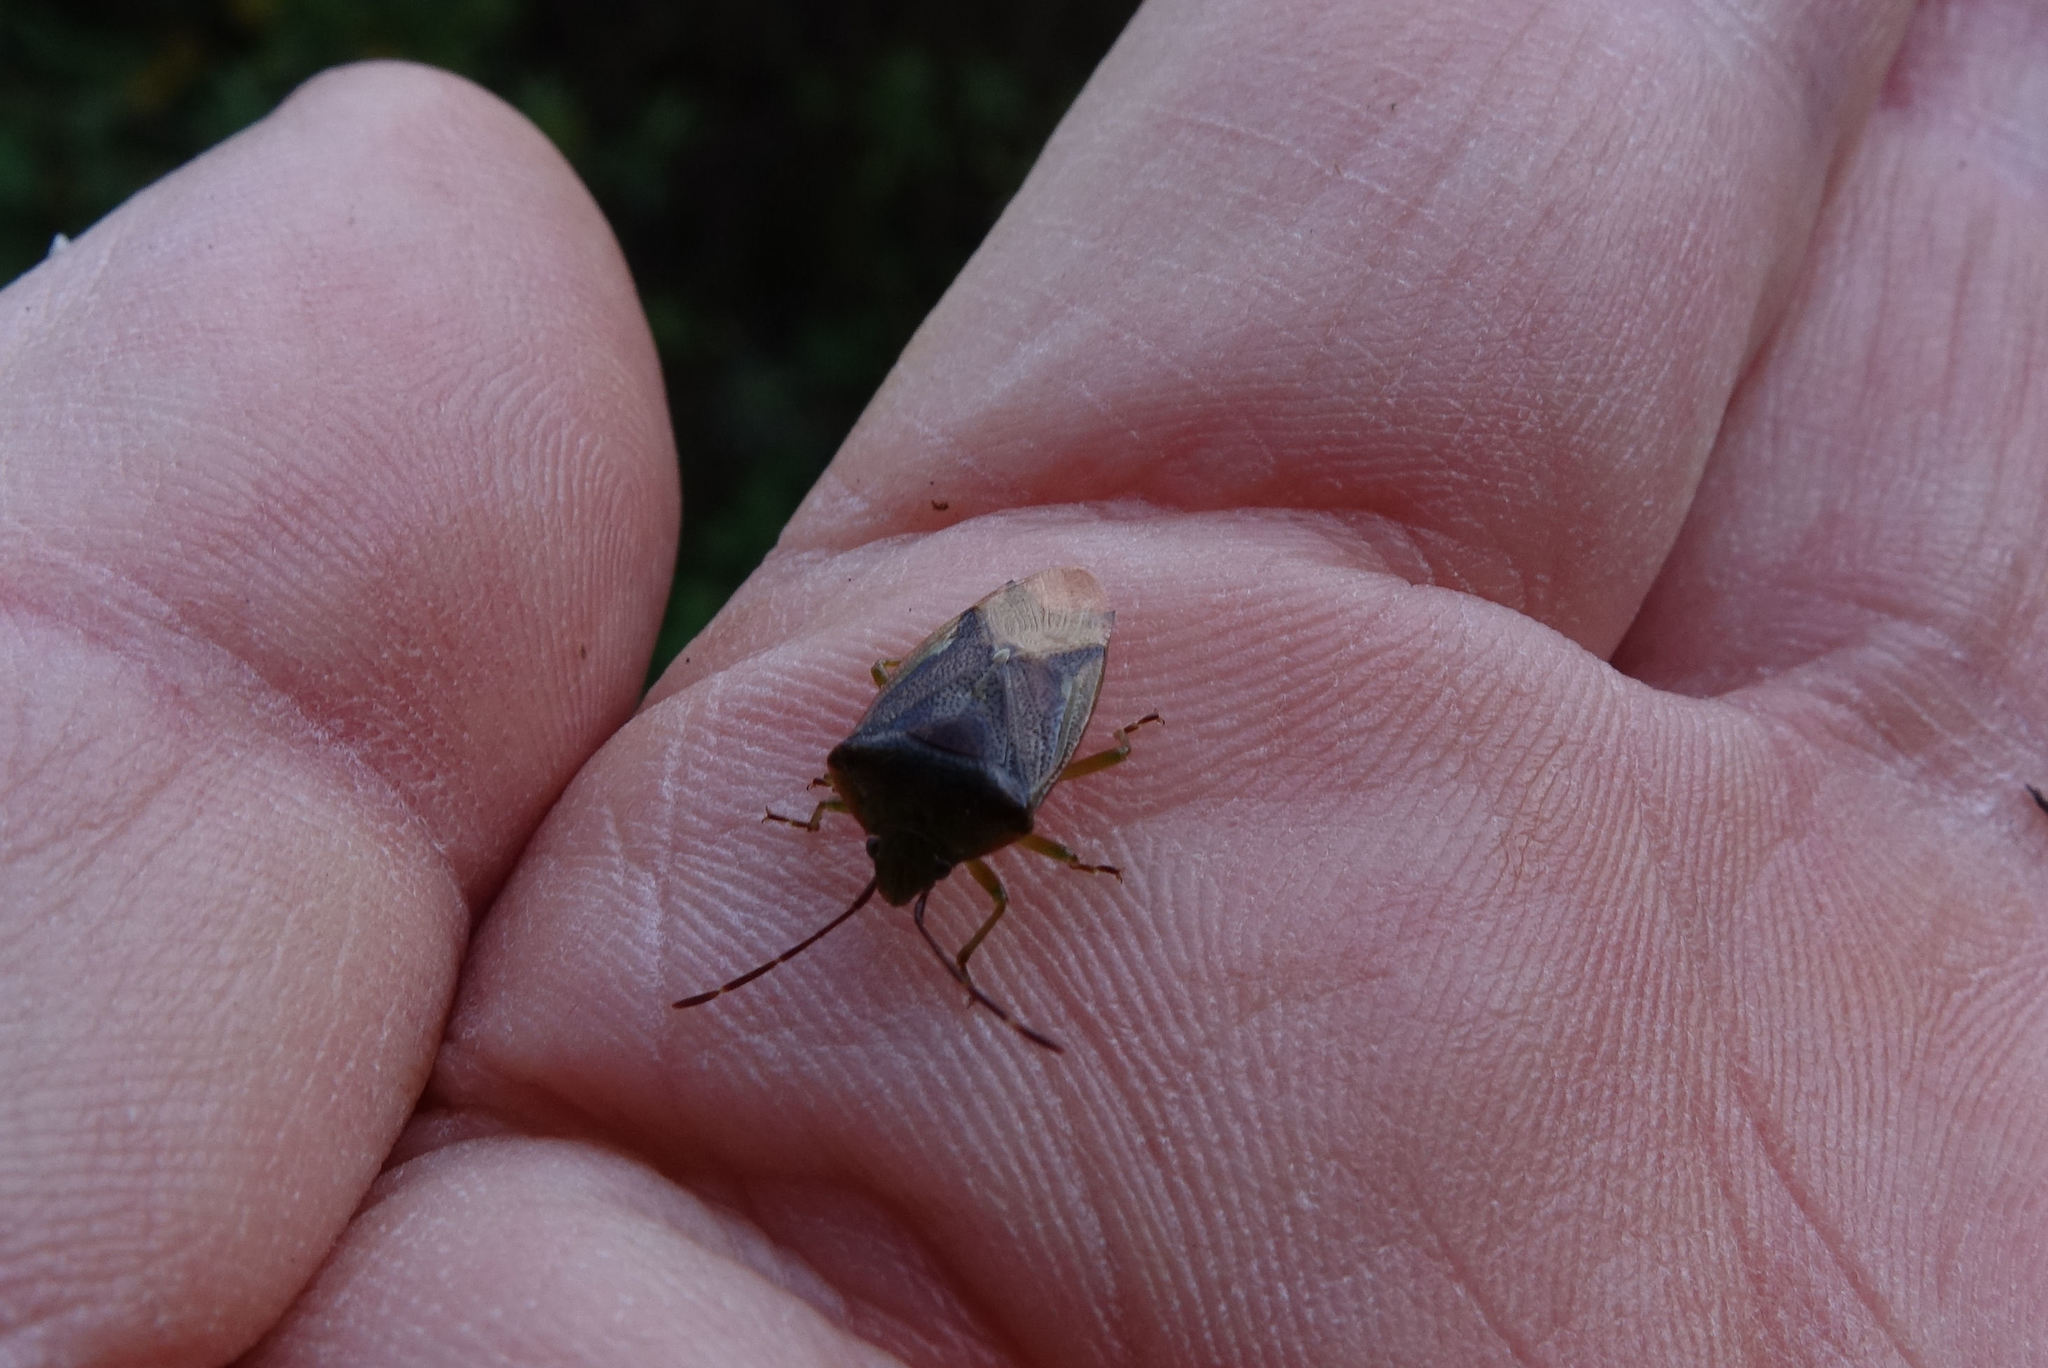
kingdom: Animalia
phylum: Arthropoda
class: Insecta
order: Hemiptera
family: Acanthosomatidae
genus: Oncacontias
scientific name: Oncacontias vittatus
